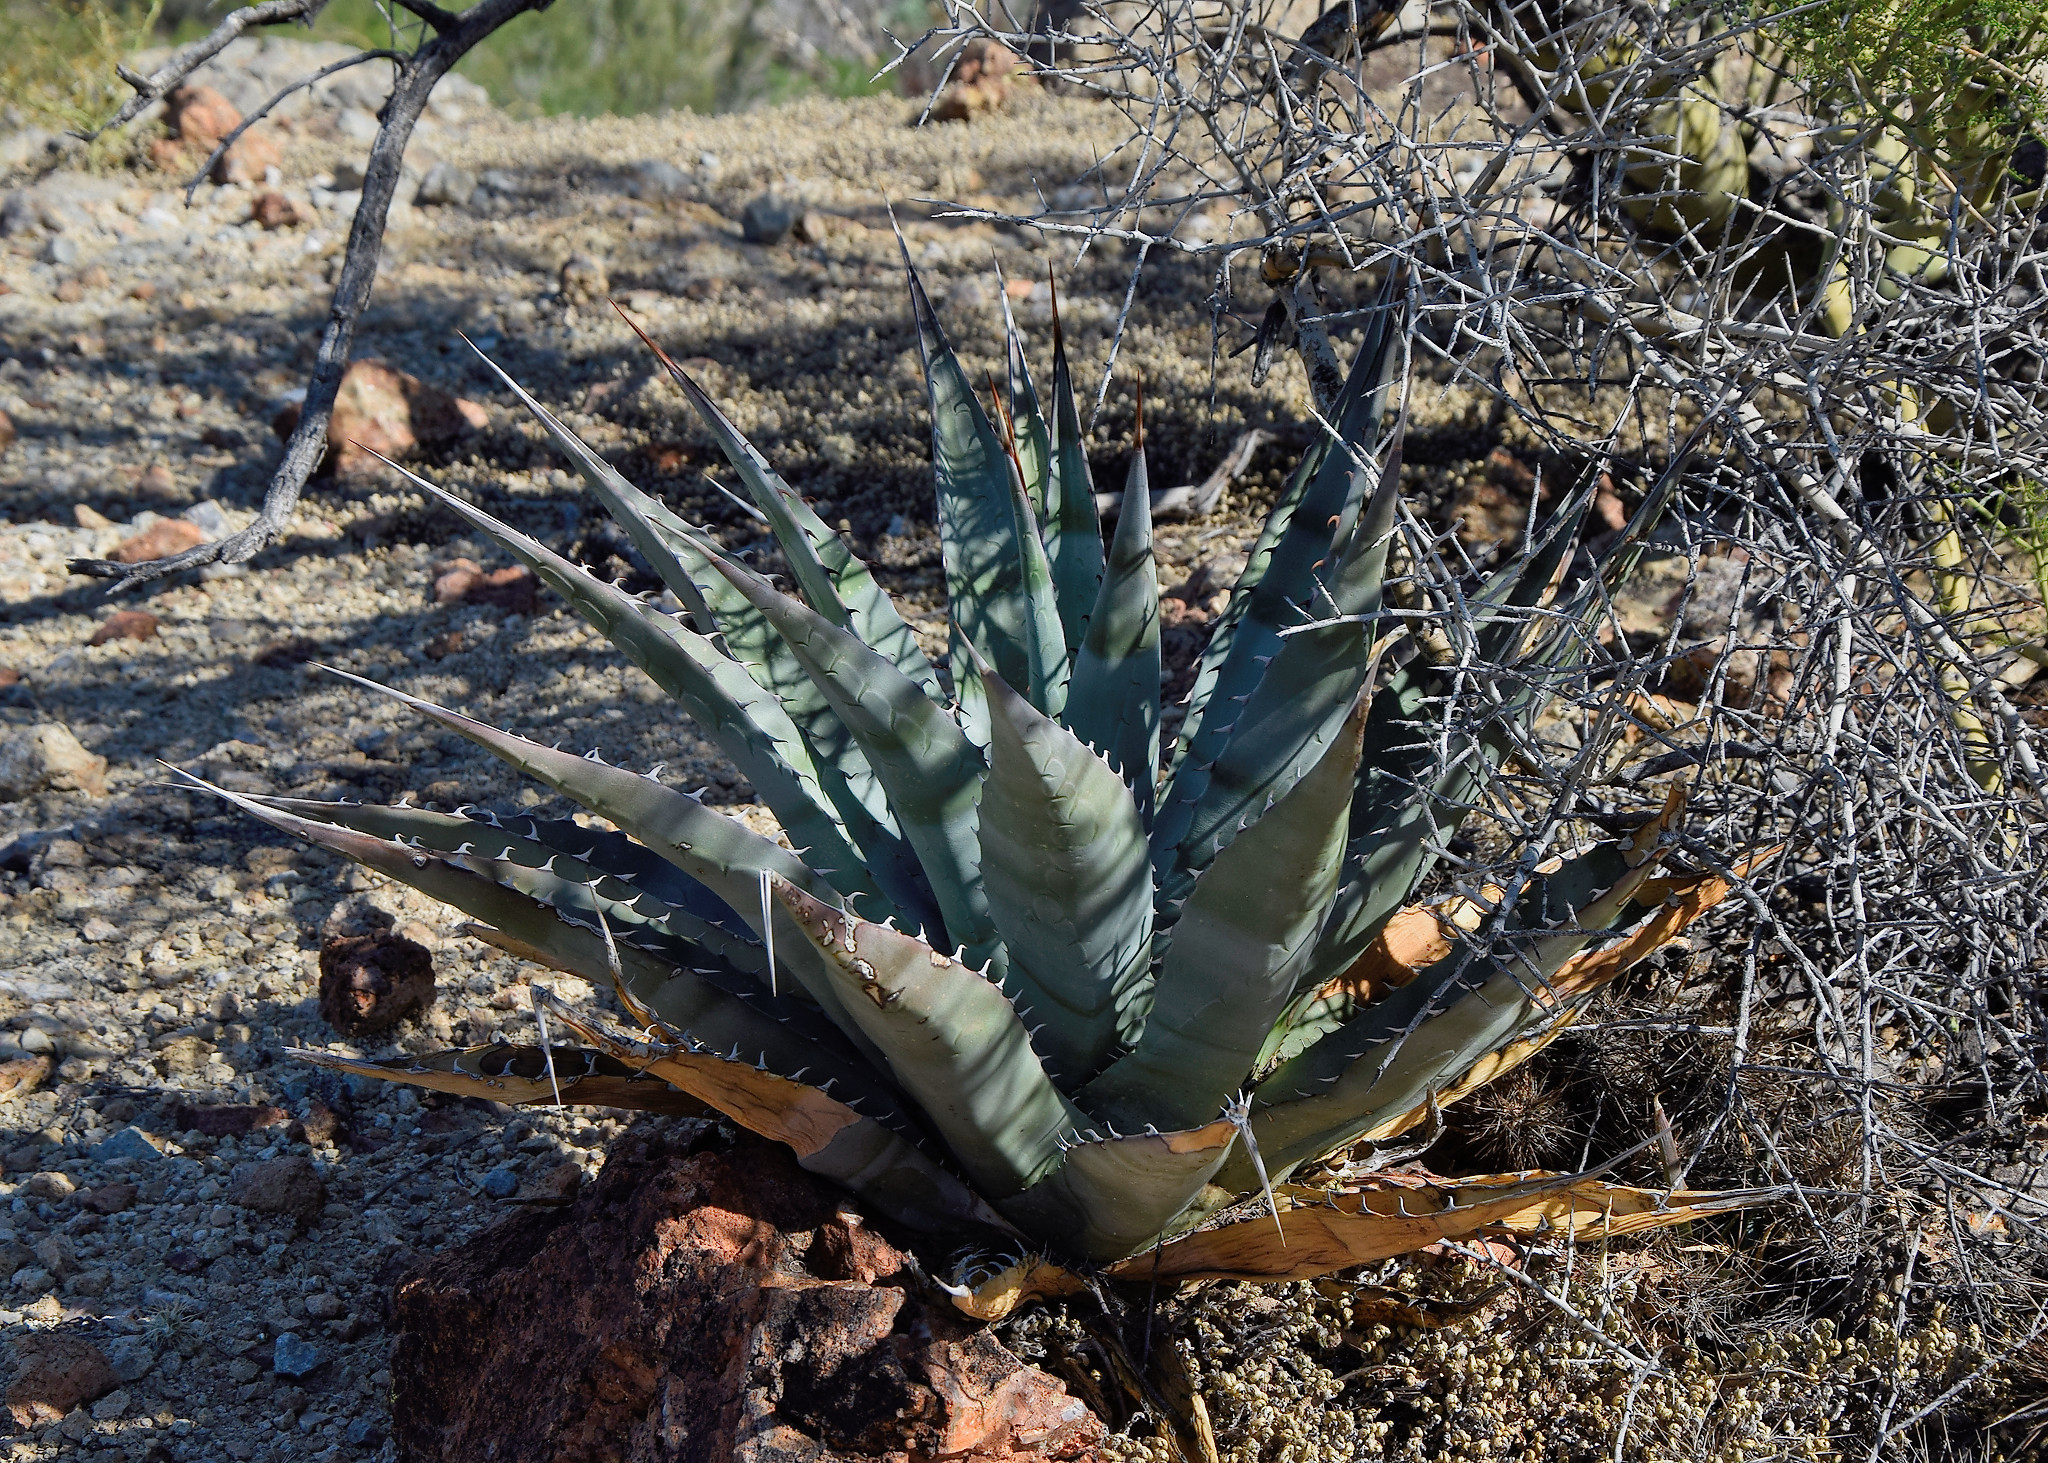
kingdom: Plantae
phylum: Tracheophyta
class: Liliopsida
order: Asparagales
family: Asparagaceae
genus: Agave
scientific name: Agave simplex
